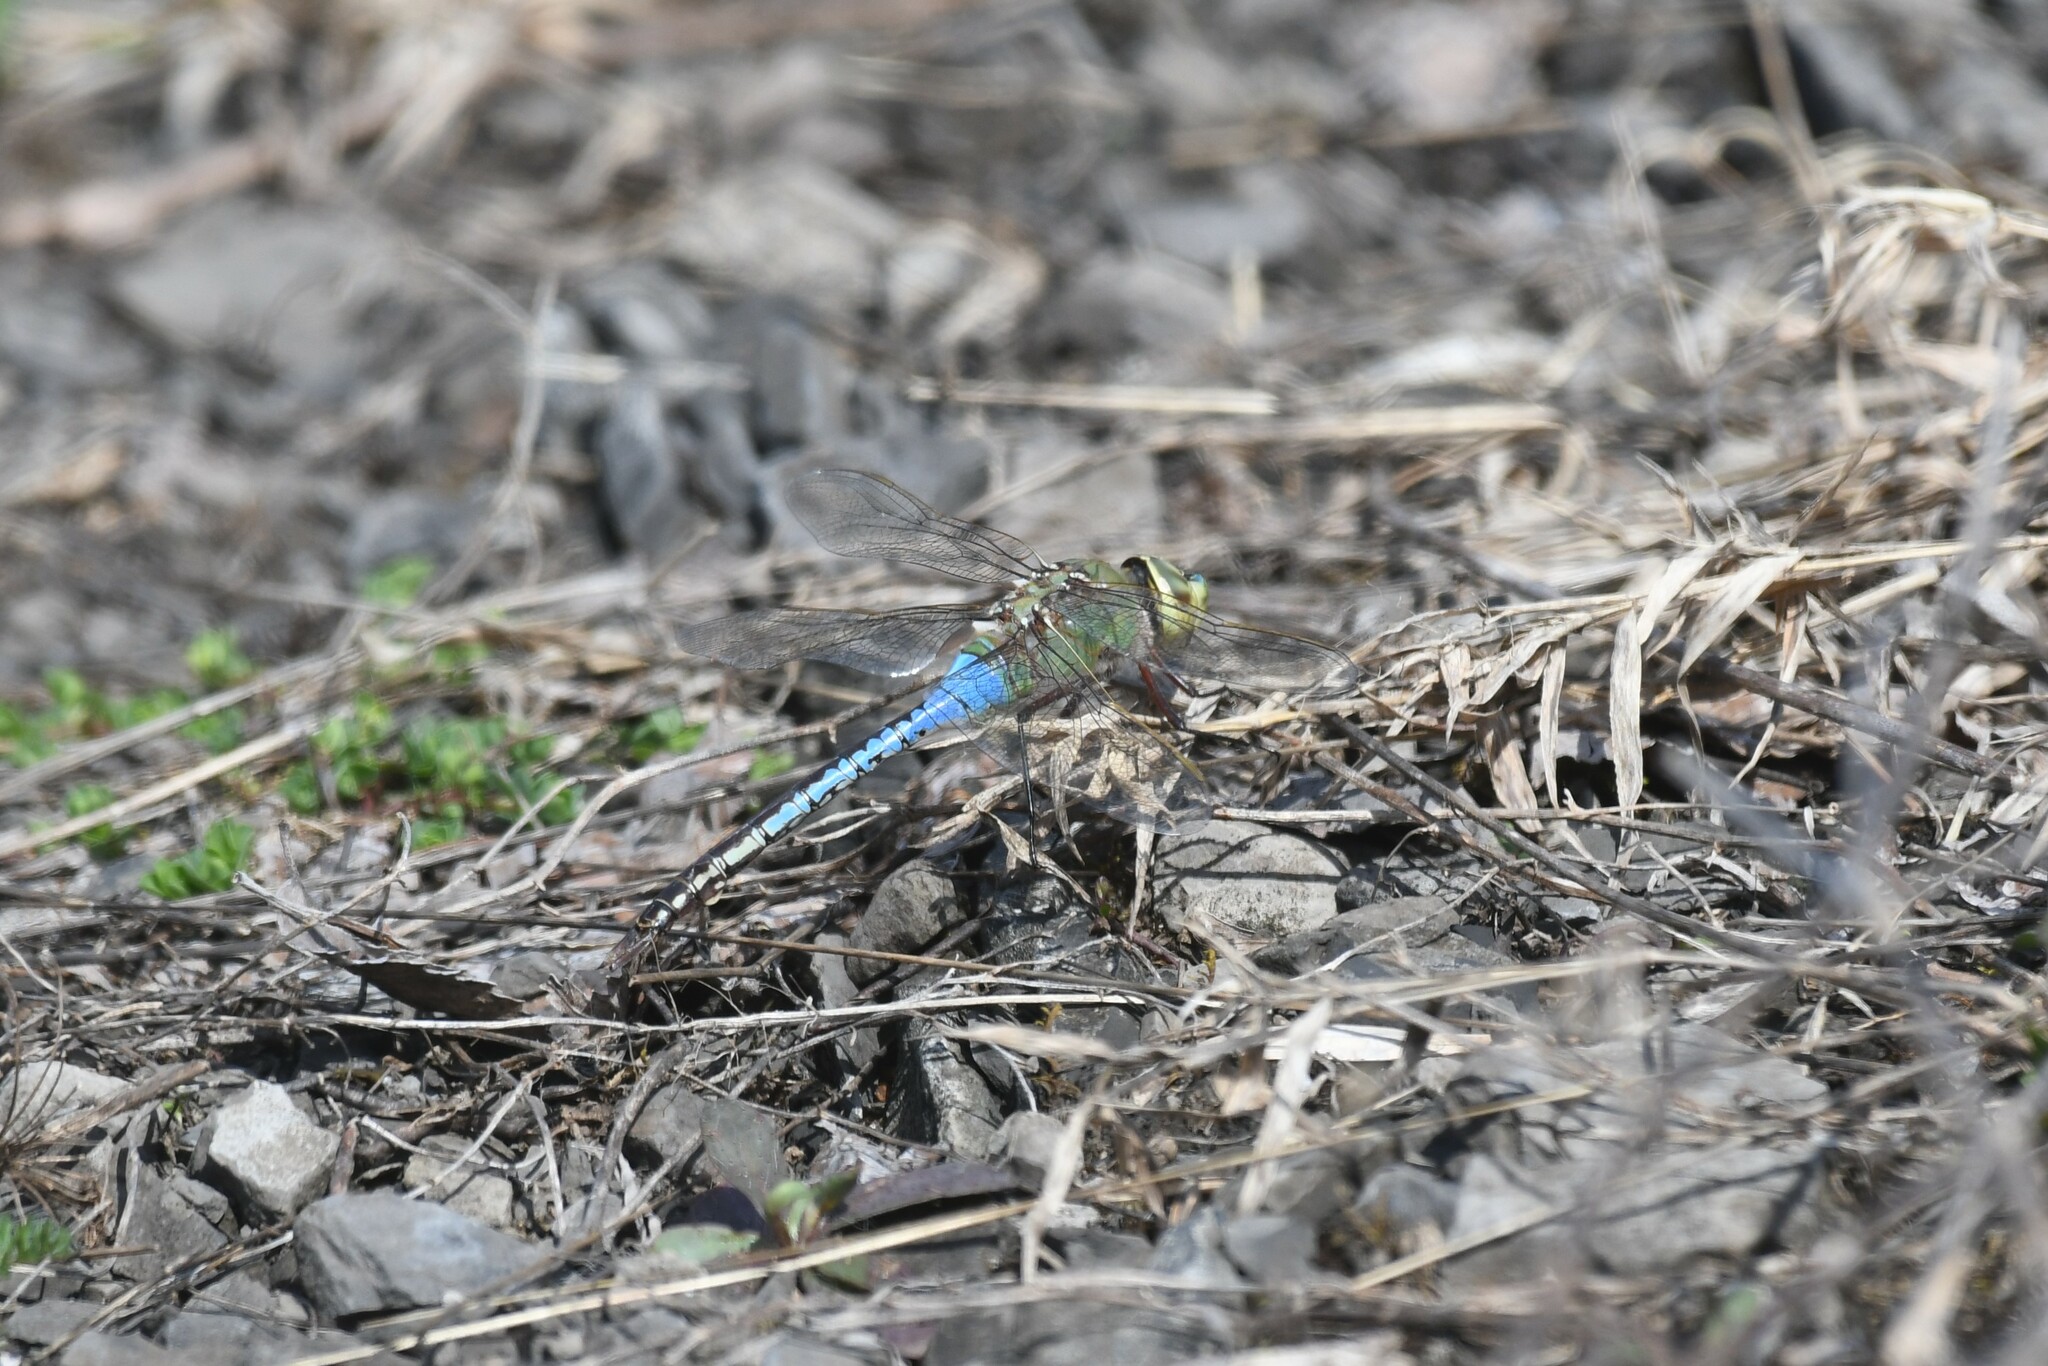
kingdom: Animalia
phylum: Arthropoda
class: Insecta
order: Odonata
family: Aeshnidae
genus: Anax
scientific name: Anax junius
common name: Common green darner
